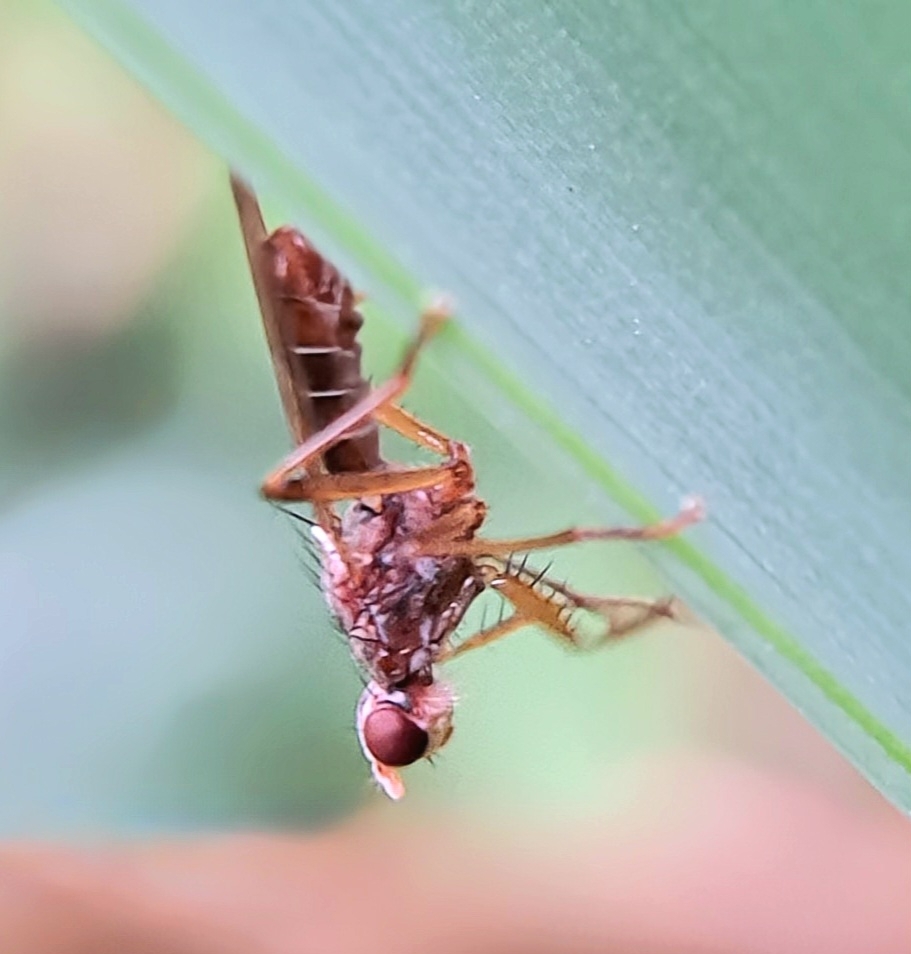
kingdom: Animalia
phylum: Arthropoda
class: Insecta
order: Diptera
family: Scathophagidae
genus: Norellia
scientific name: Norellia spinipes
